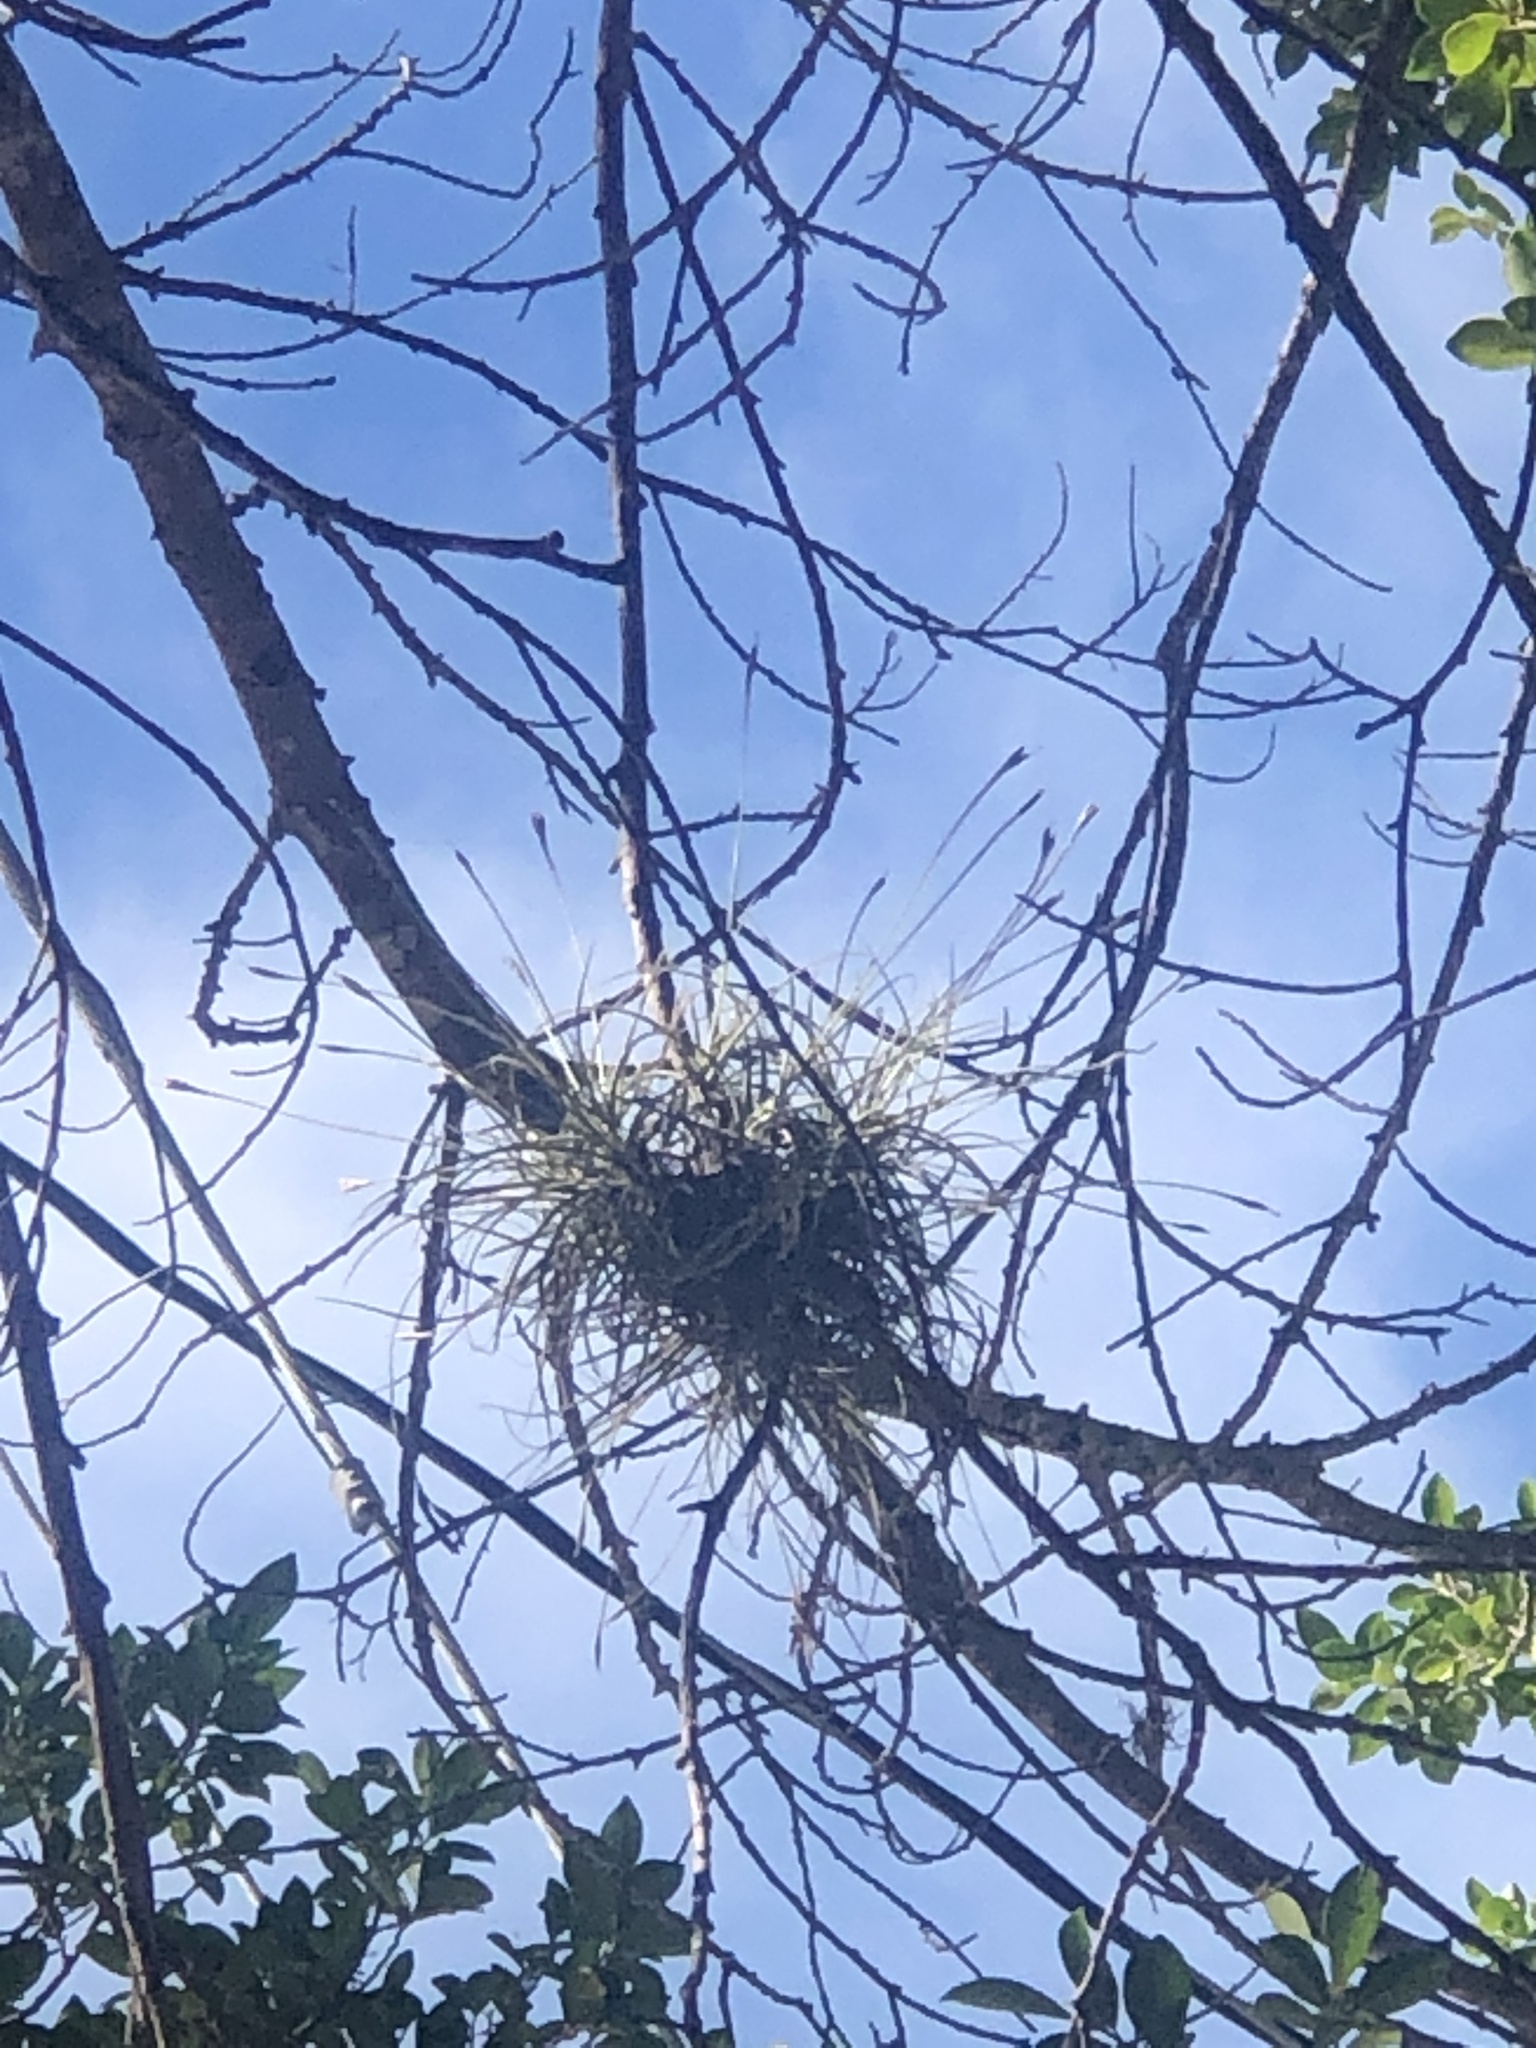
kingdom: Plantae
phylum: Tracheophyta
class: Liliopsida
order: Poales
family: Bromeliaceae
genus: Tillandsia
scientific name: Tillandsia recurvata
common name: Small ballmoss
